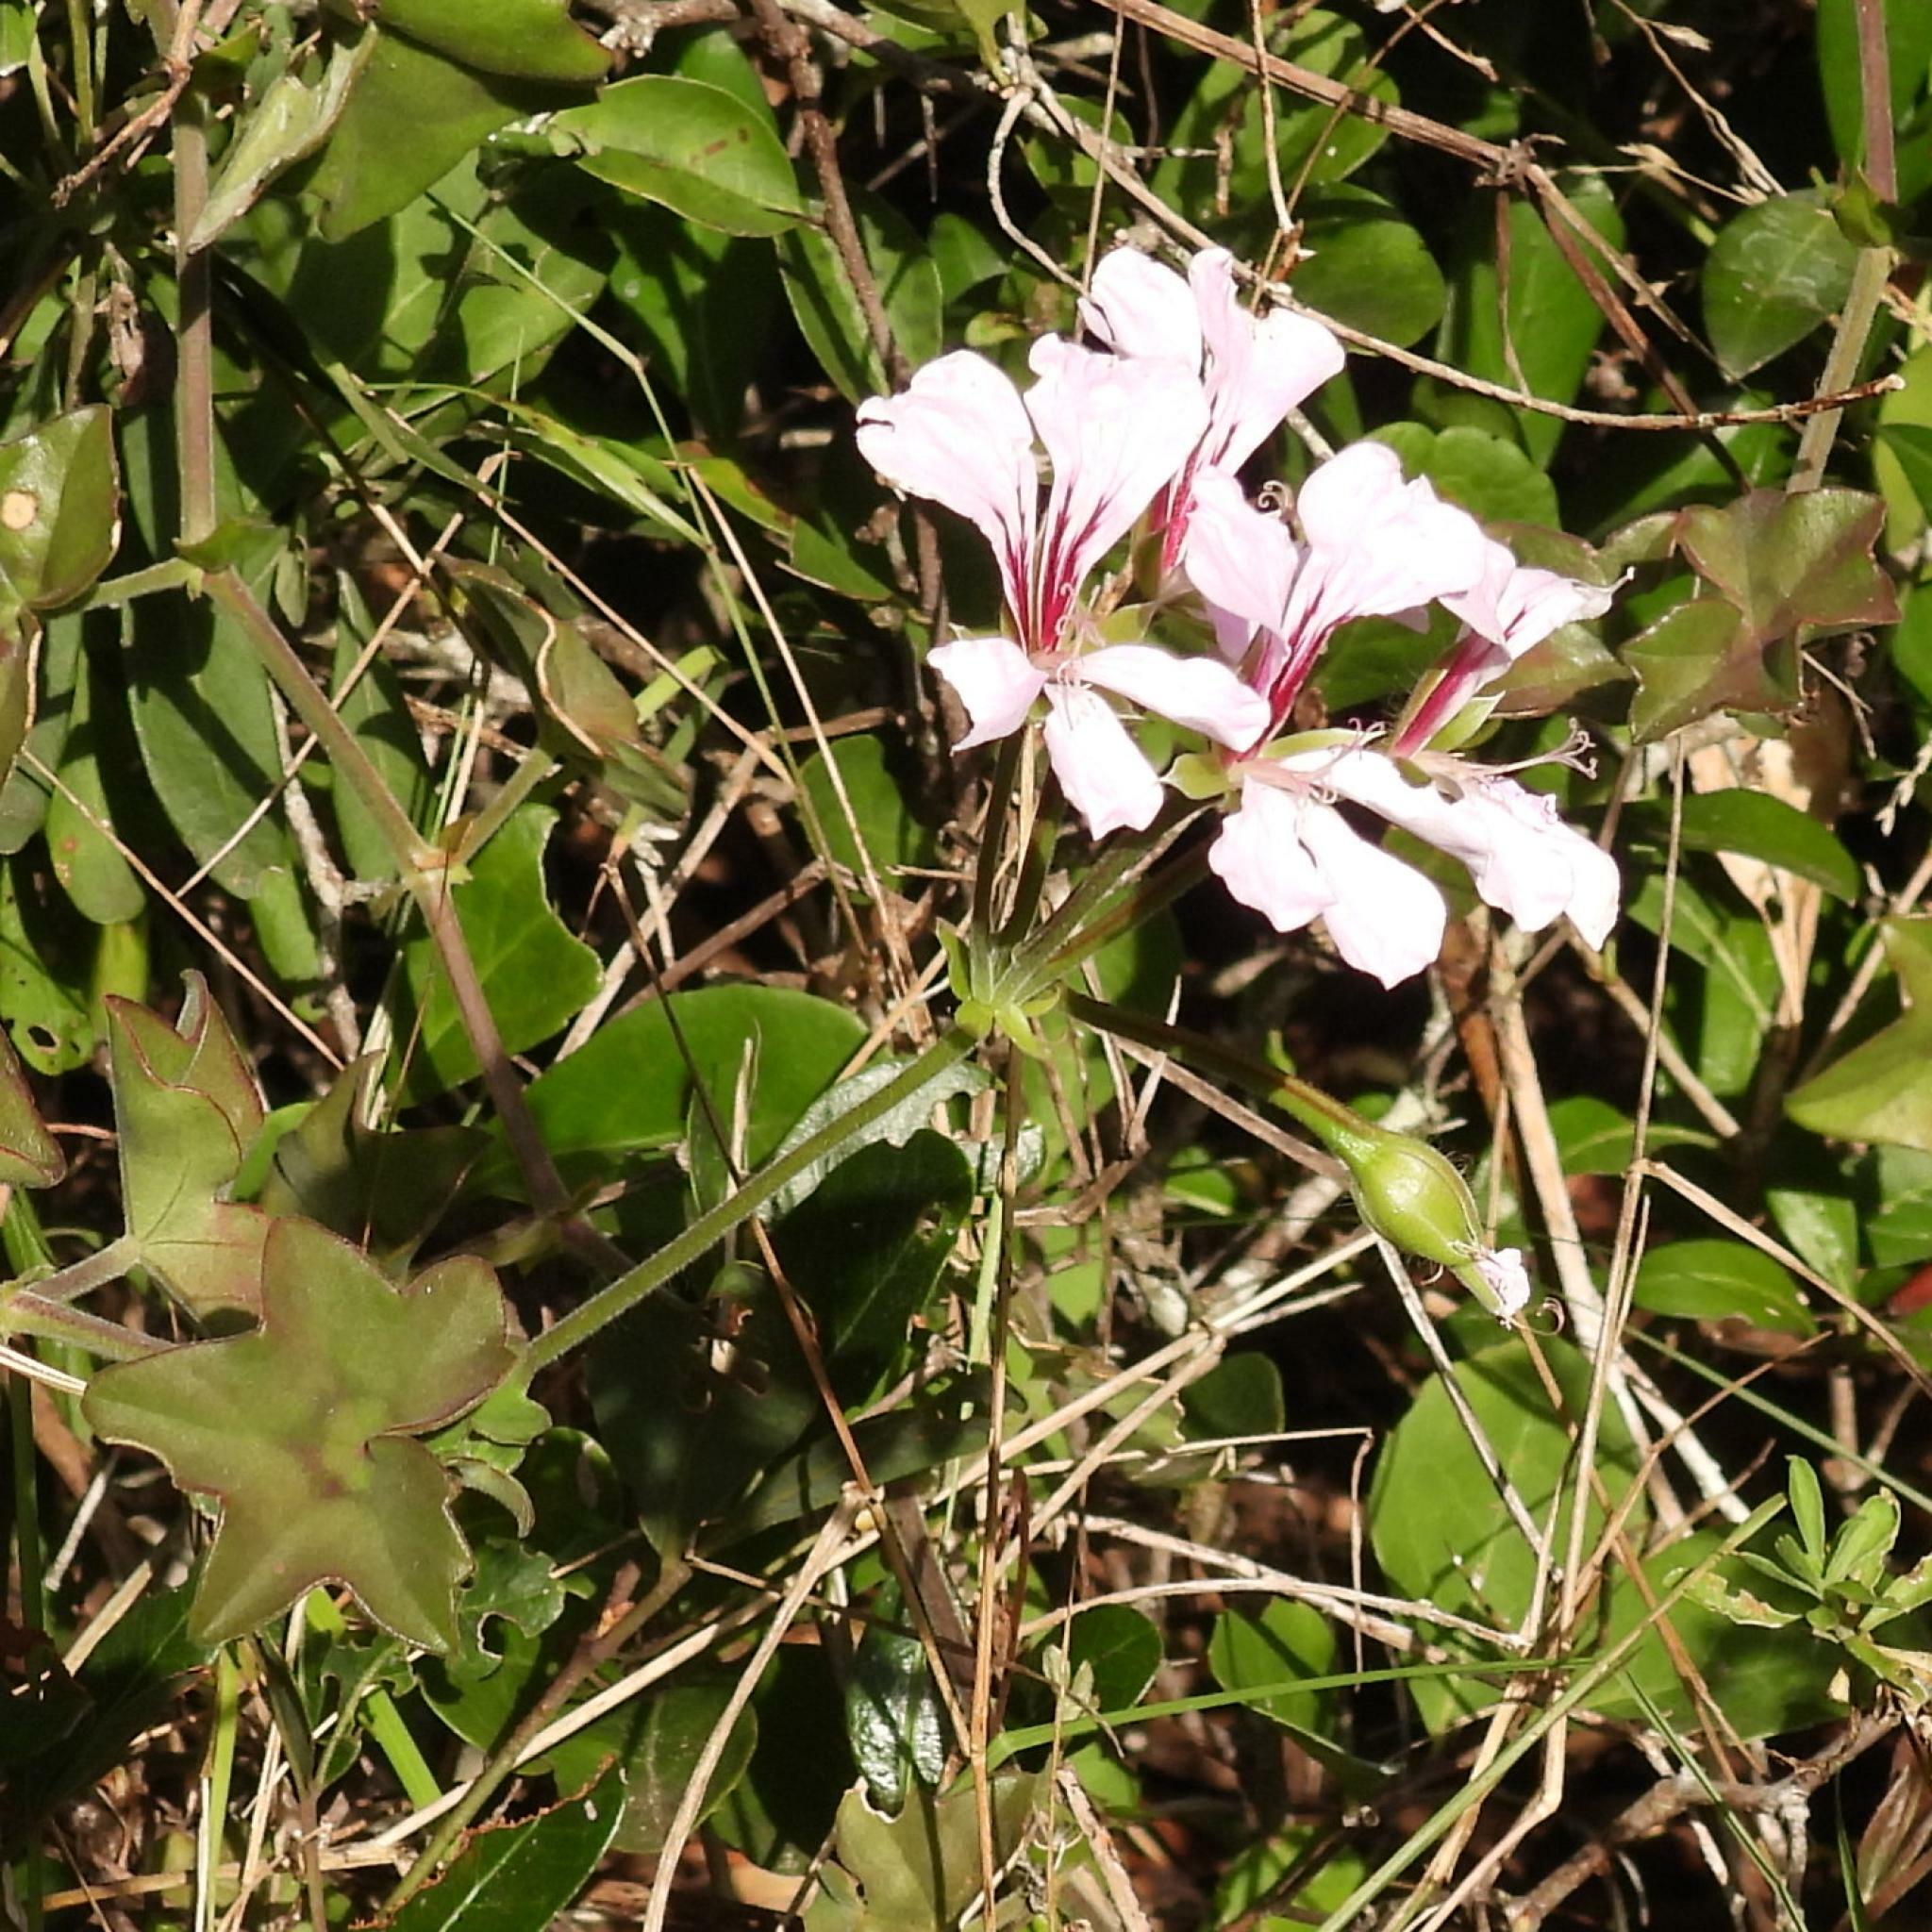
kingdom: Plantae
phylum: Tracheophyta
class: Magnoliopsida
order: Geraniales
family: Geraniaceae
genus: Pelargonium
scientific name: Pelargonium peltatum
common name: Ivyleaf geranium
